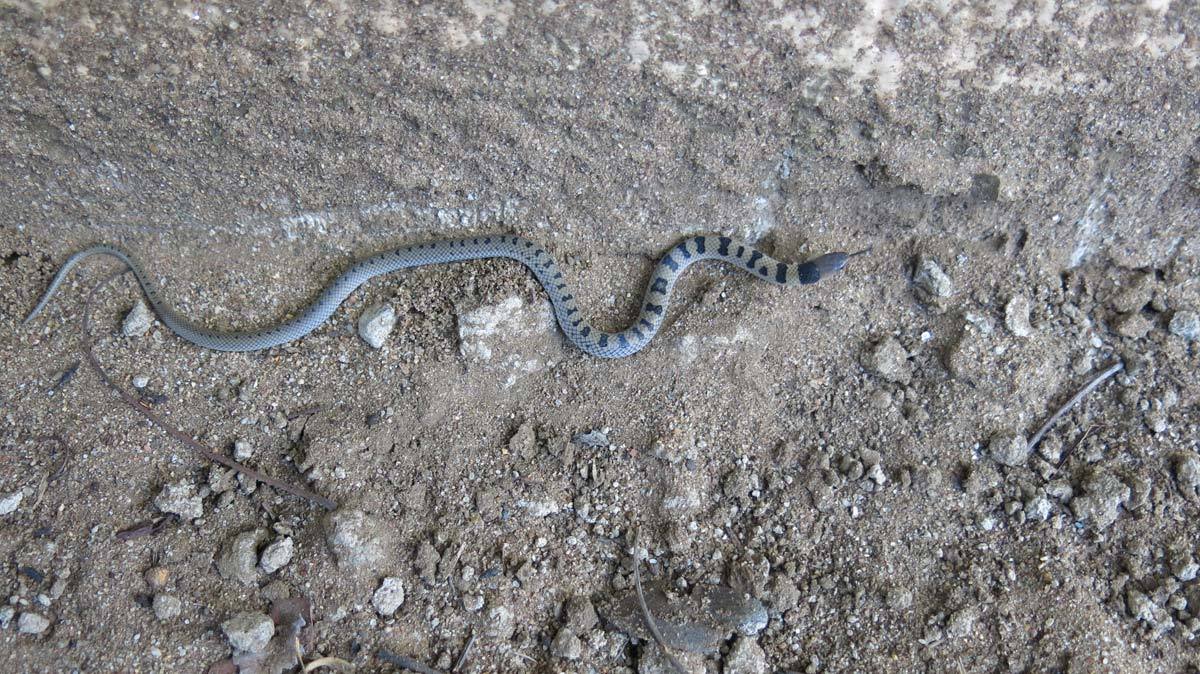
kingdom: Animalia
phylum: Chordata
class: Squamata
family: Atractaspididae
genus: Aparallactus
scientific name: Aparallactus lunulatus
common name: Plumbeous centipede eater
